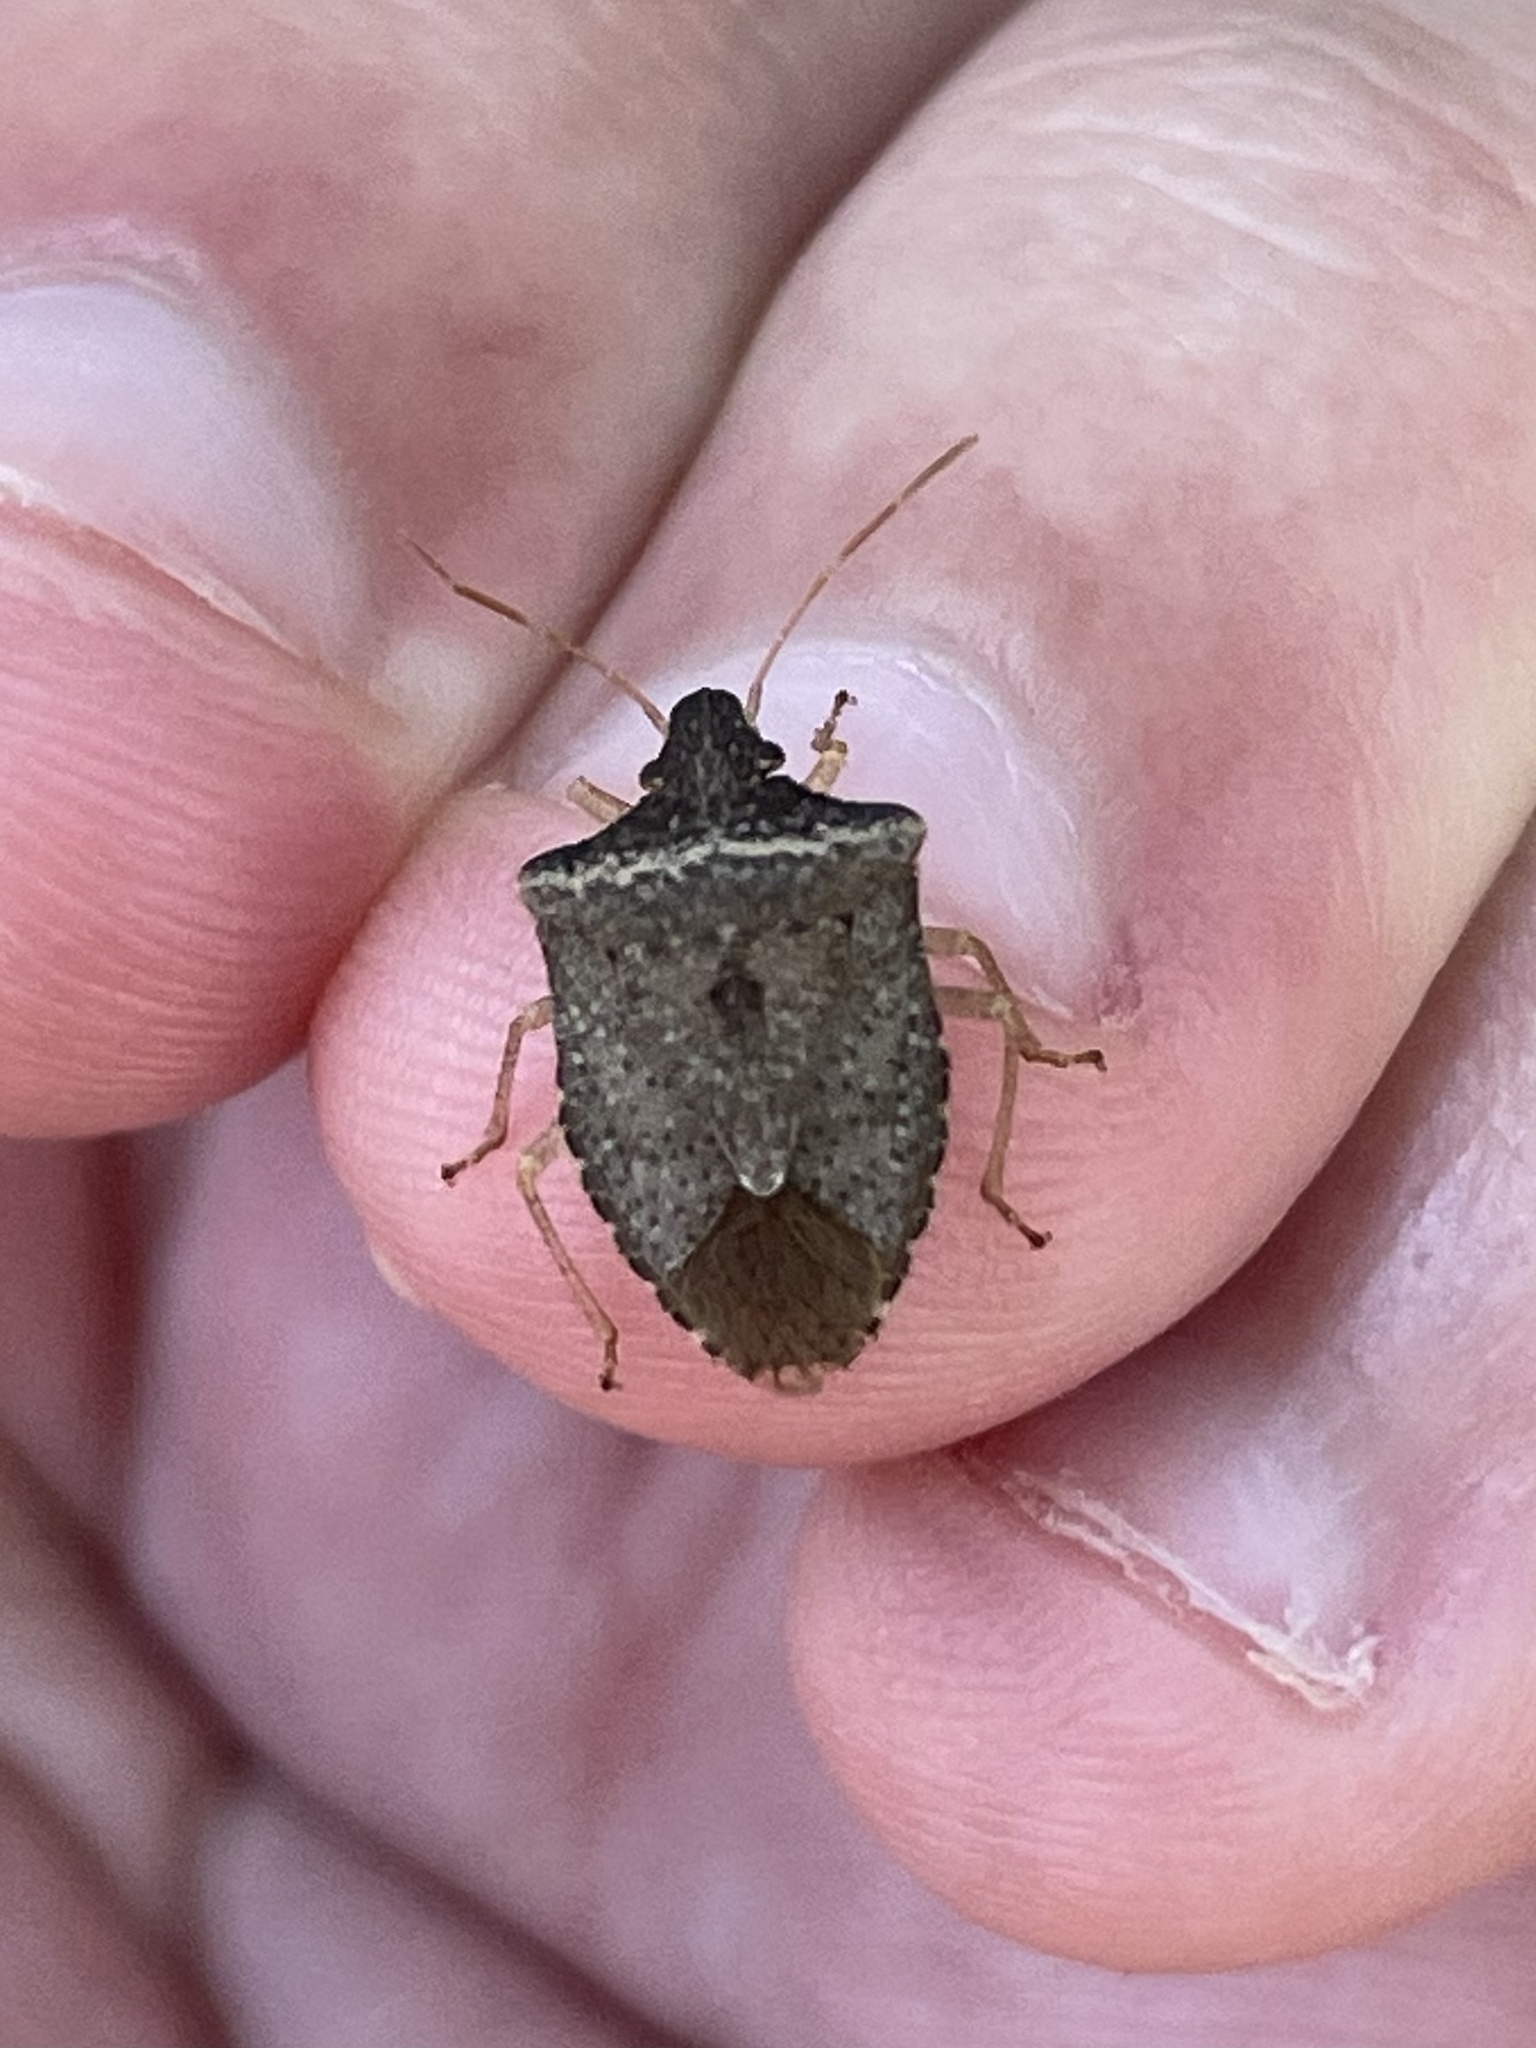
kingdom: Animalia
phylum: Arthropoda
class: Insecta
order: Hemiptera
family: Pentatomidae
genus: Euschistus
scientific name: Euschistus obscurus
